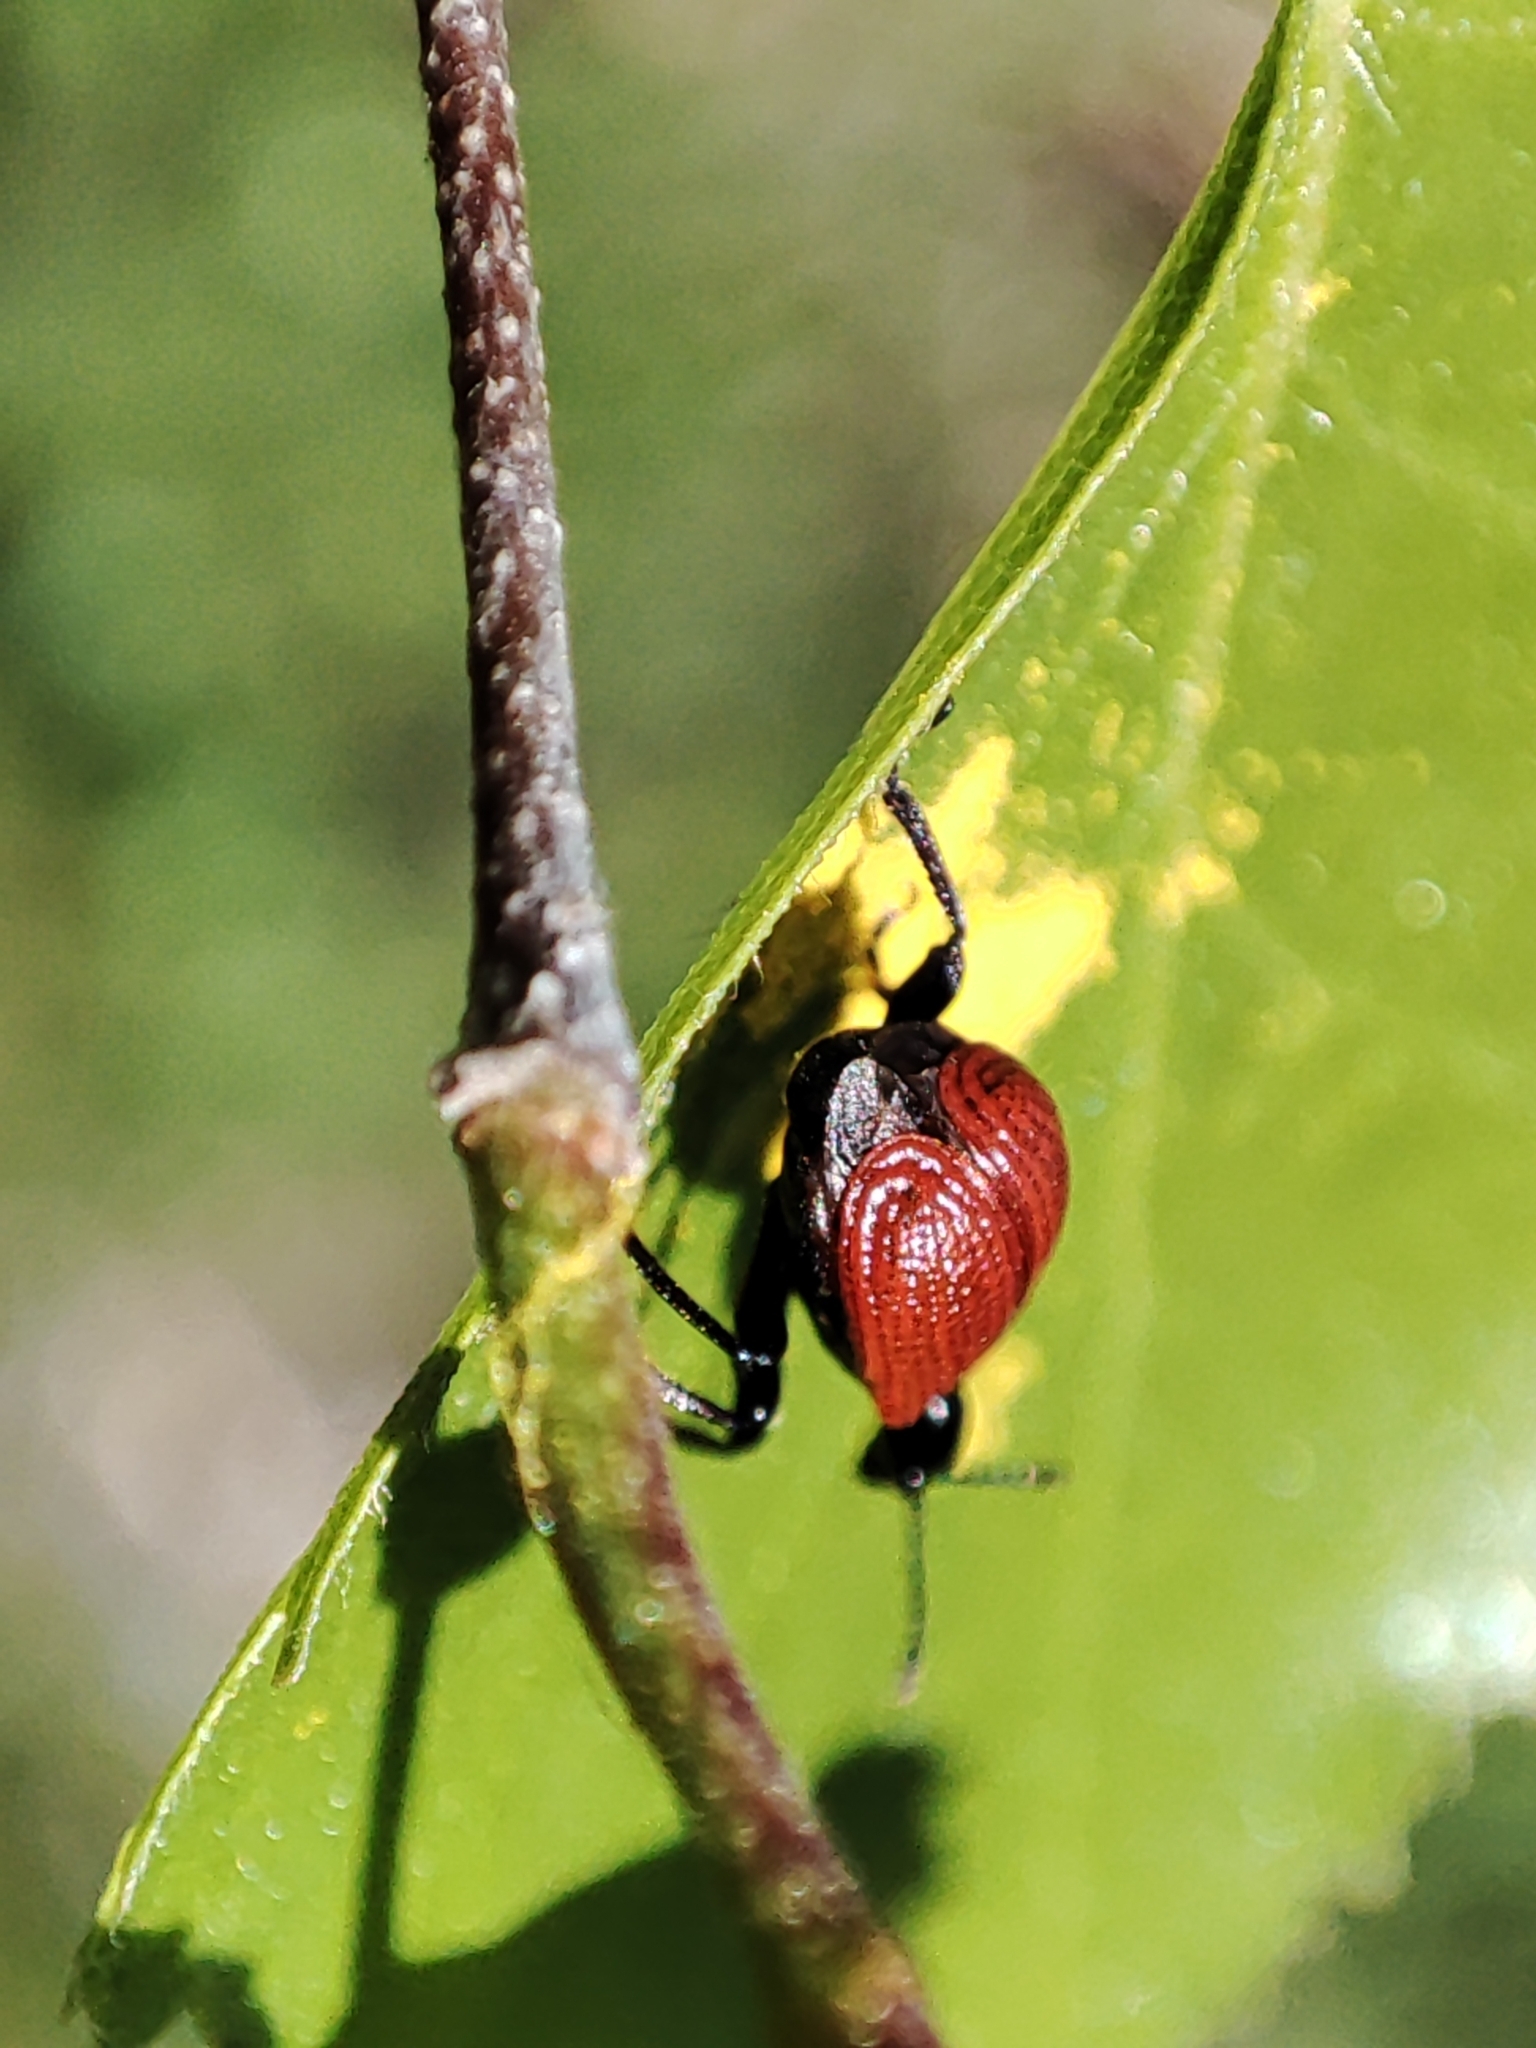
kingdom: Animalia
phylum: Arthropoda
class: Insecta
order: Coleoptera
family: Attelabidae
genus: Apoderus
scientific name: Apoderus coryli
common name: Hazel leaf roller
